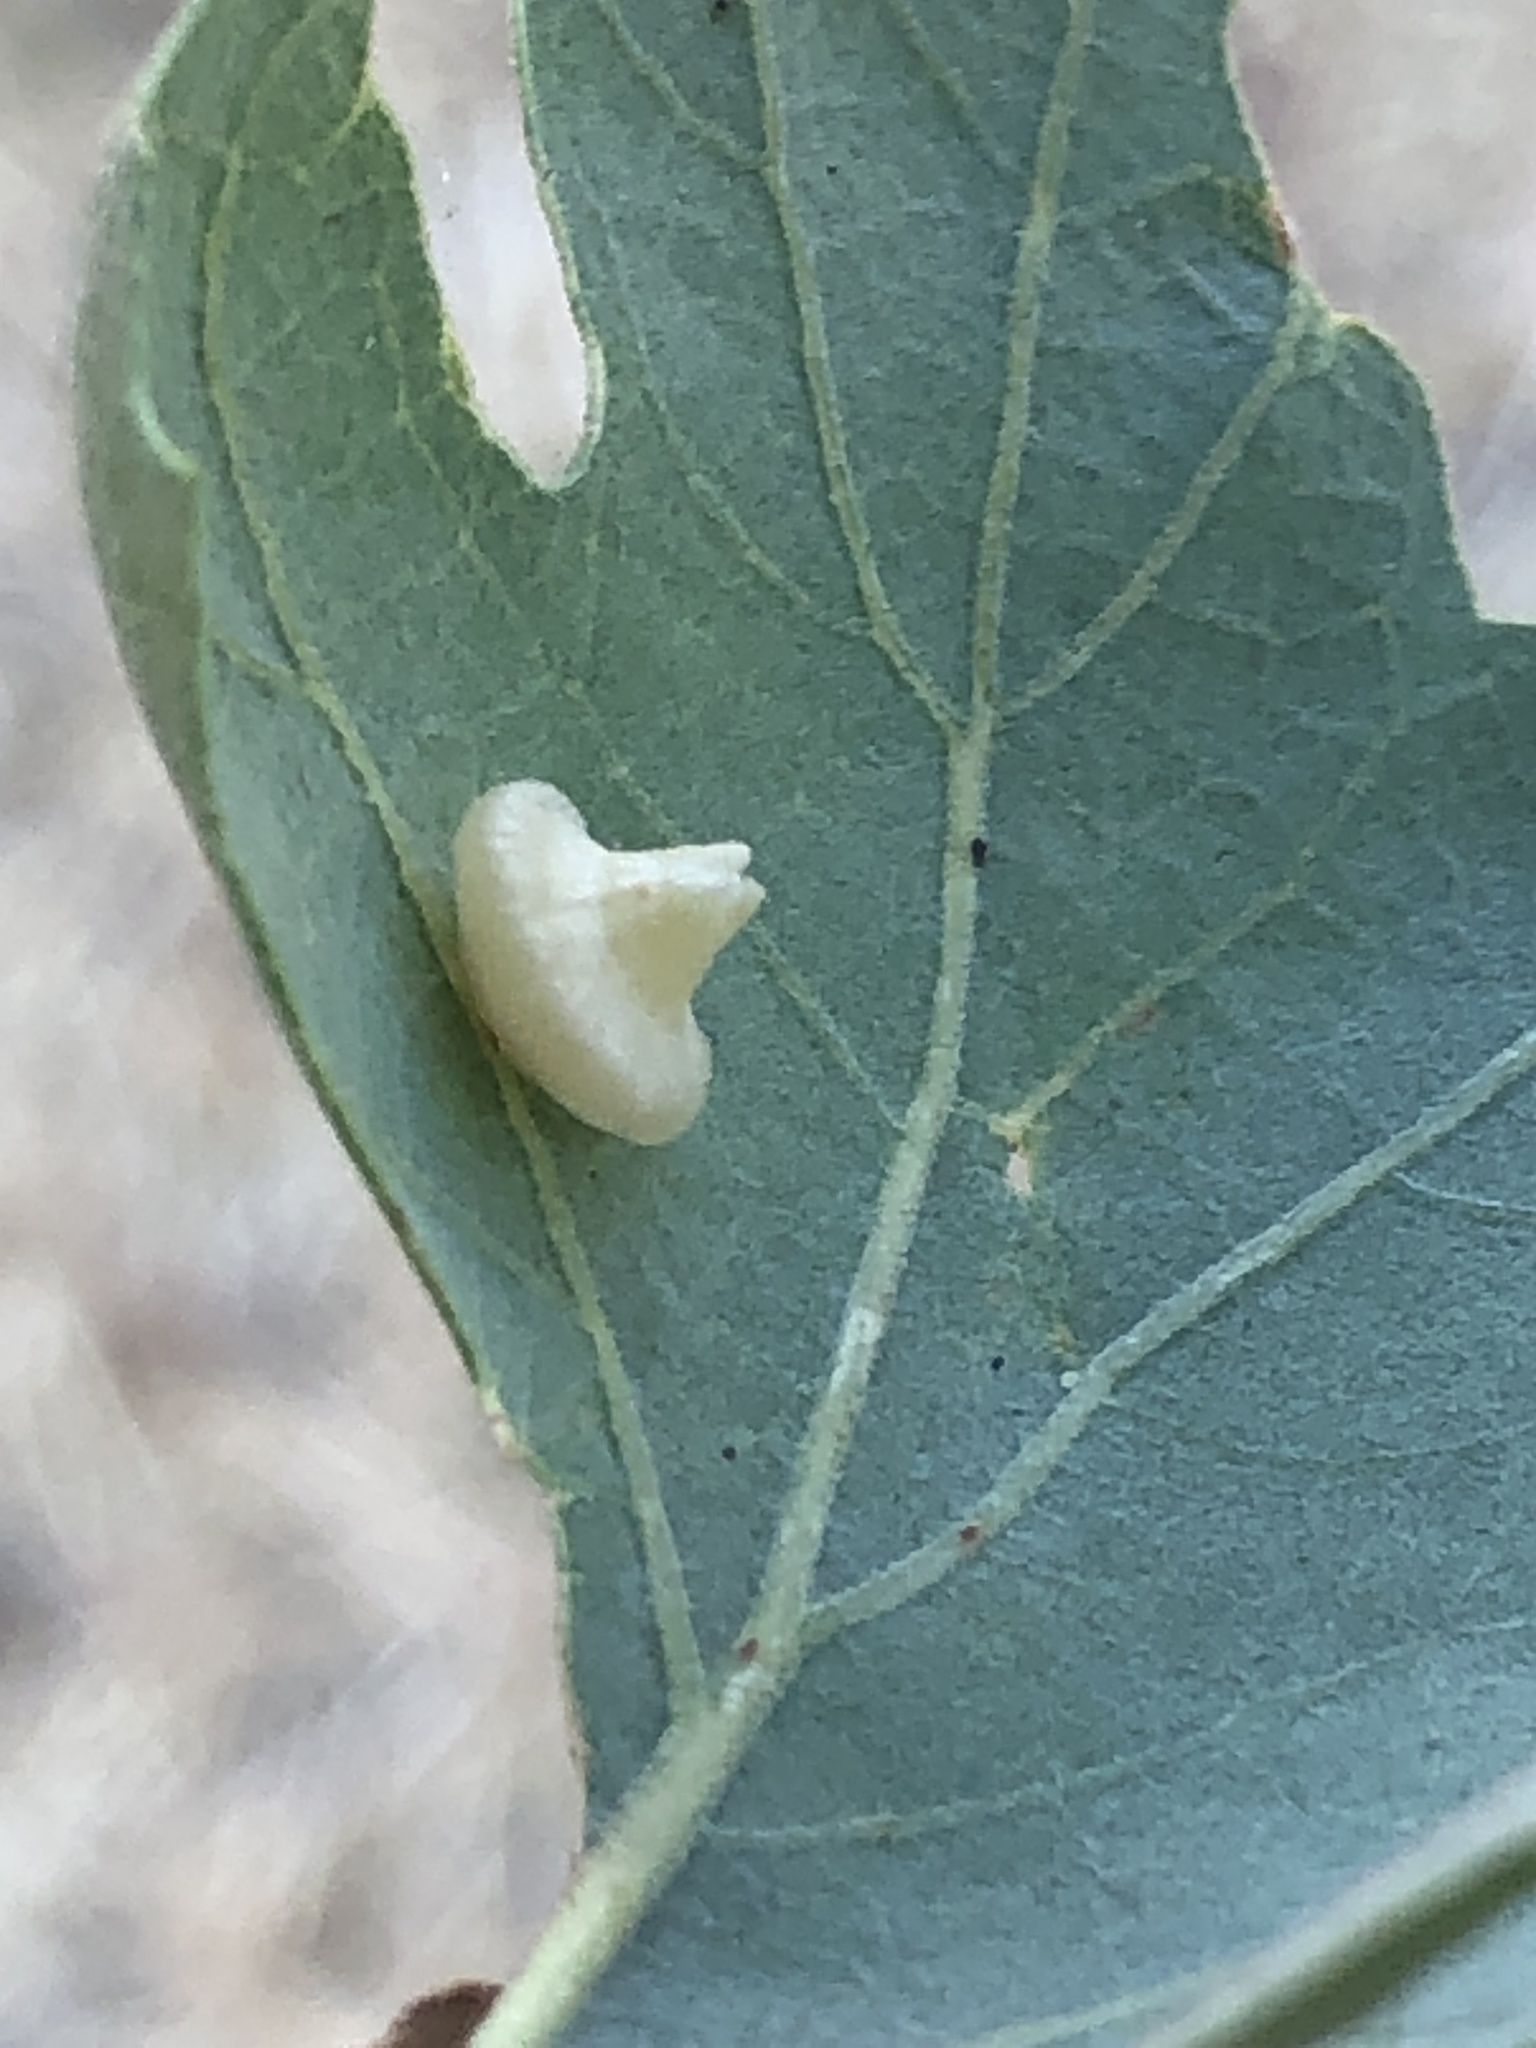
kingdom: Animalia
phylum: Arthropoda
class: Insecta
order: Hymenoptera
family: Cynipidae
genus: Andricus
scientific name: Andricus
